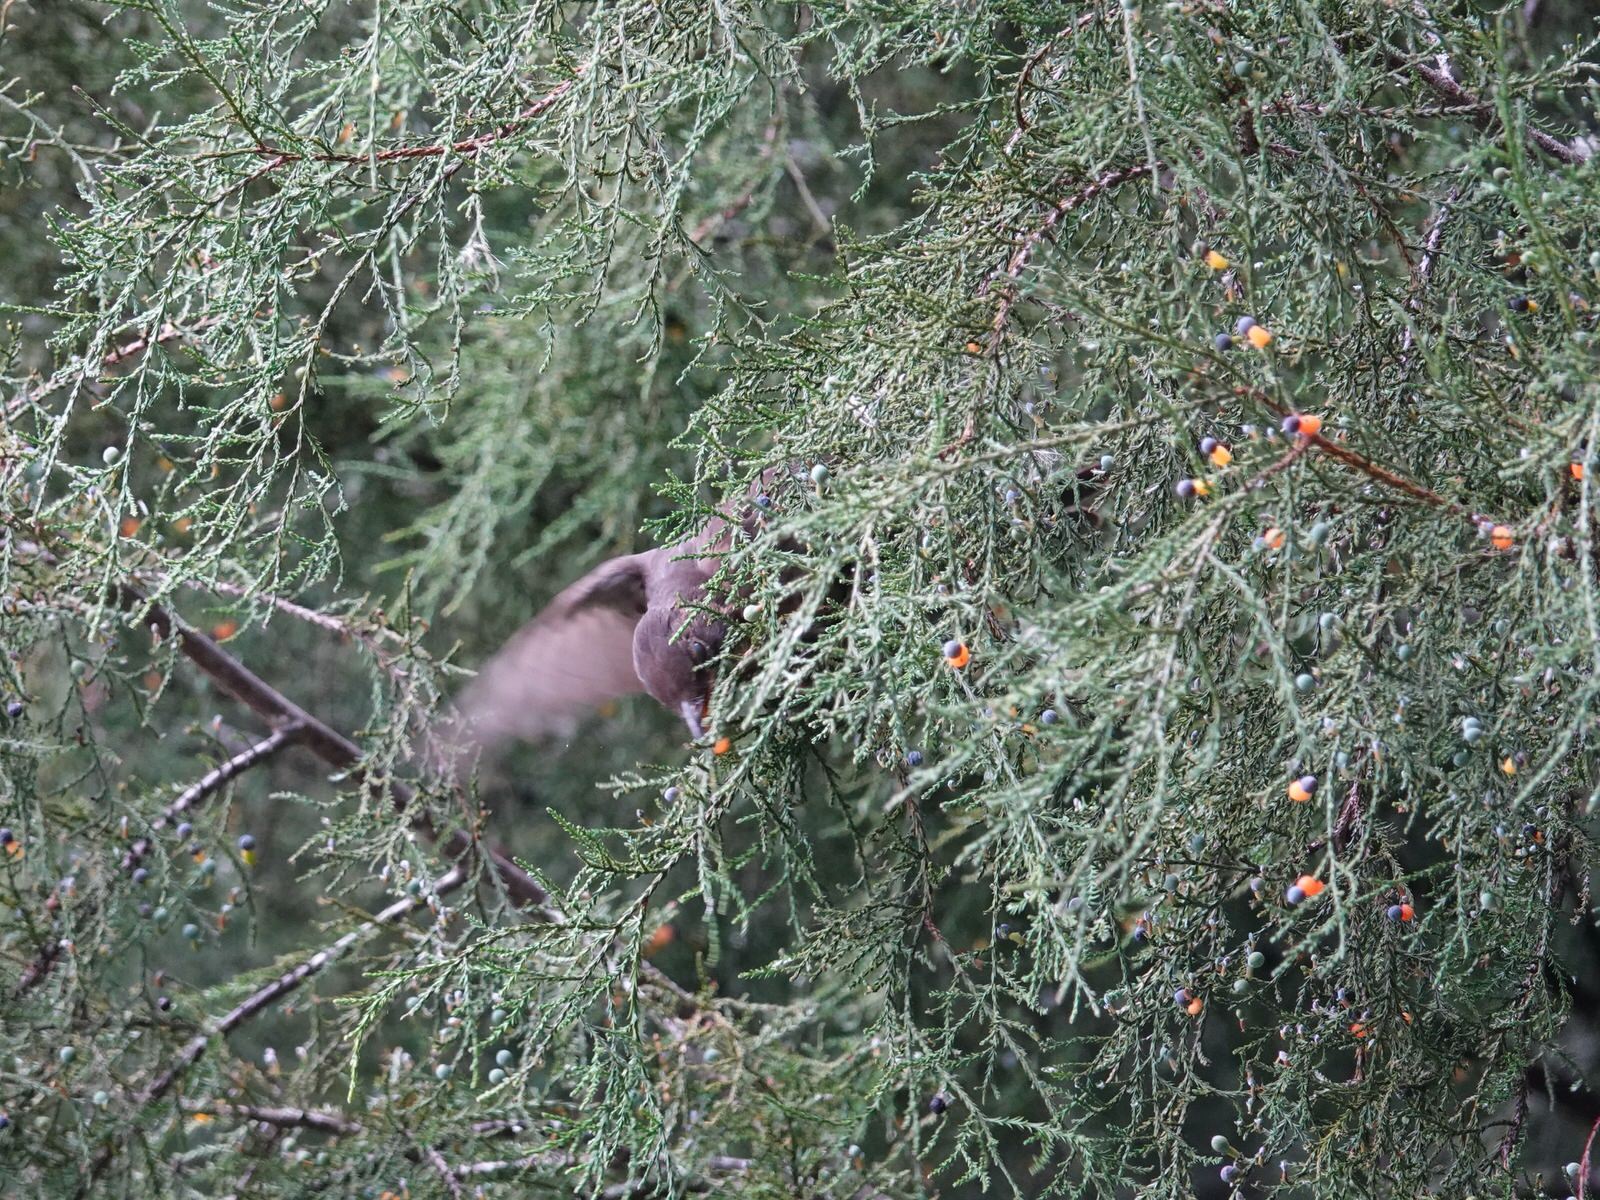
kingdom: Animalia
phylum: Chordata
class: Aves
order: Passeriformes
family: Turdidae
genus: Turdus
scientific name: Turdus merula
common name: Common blackbird
